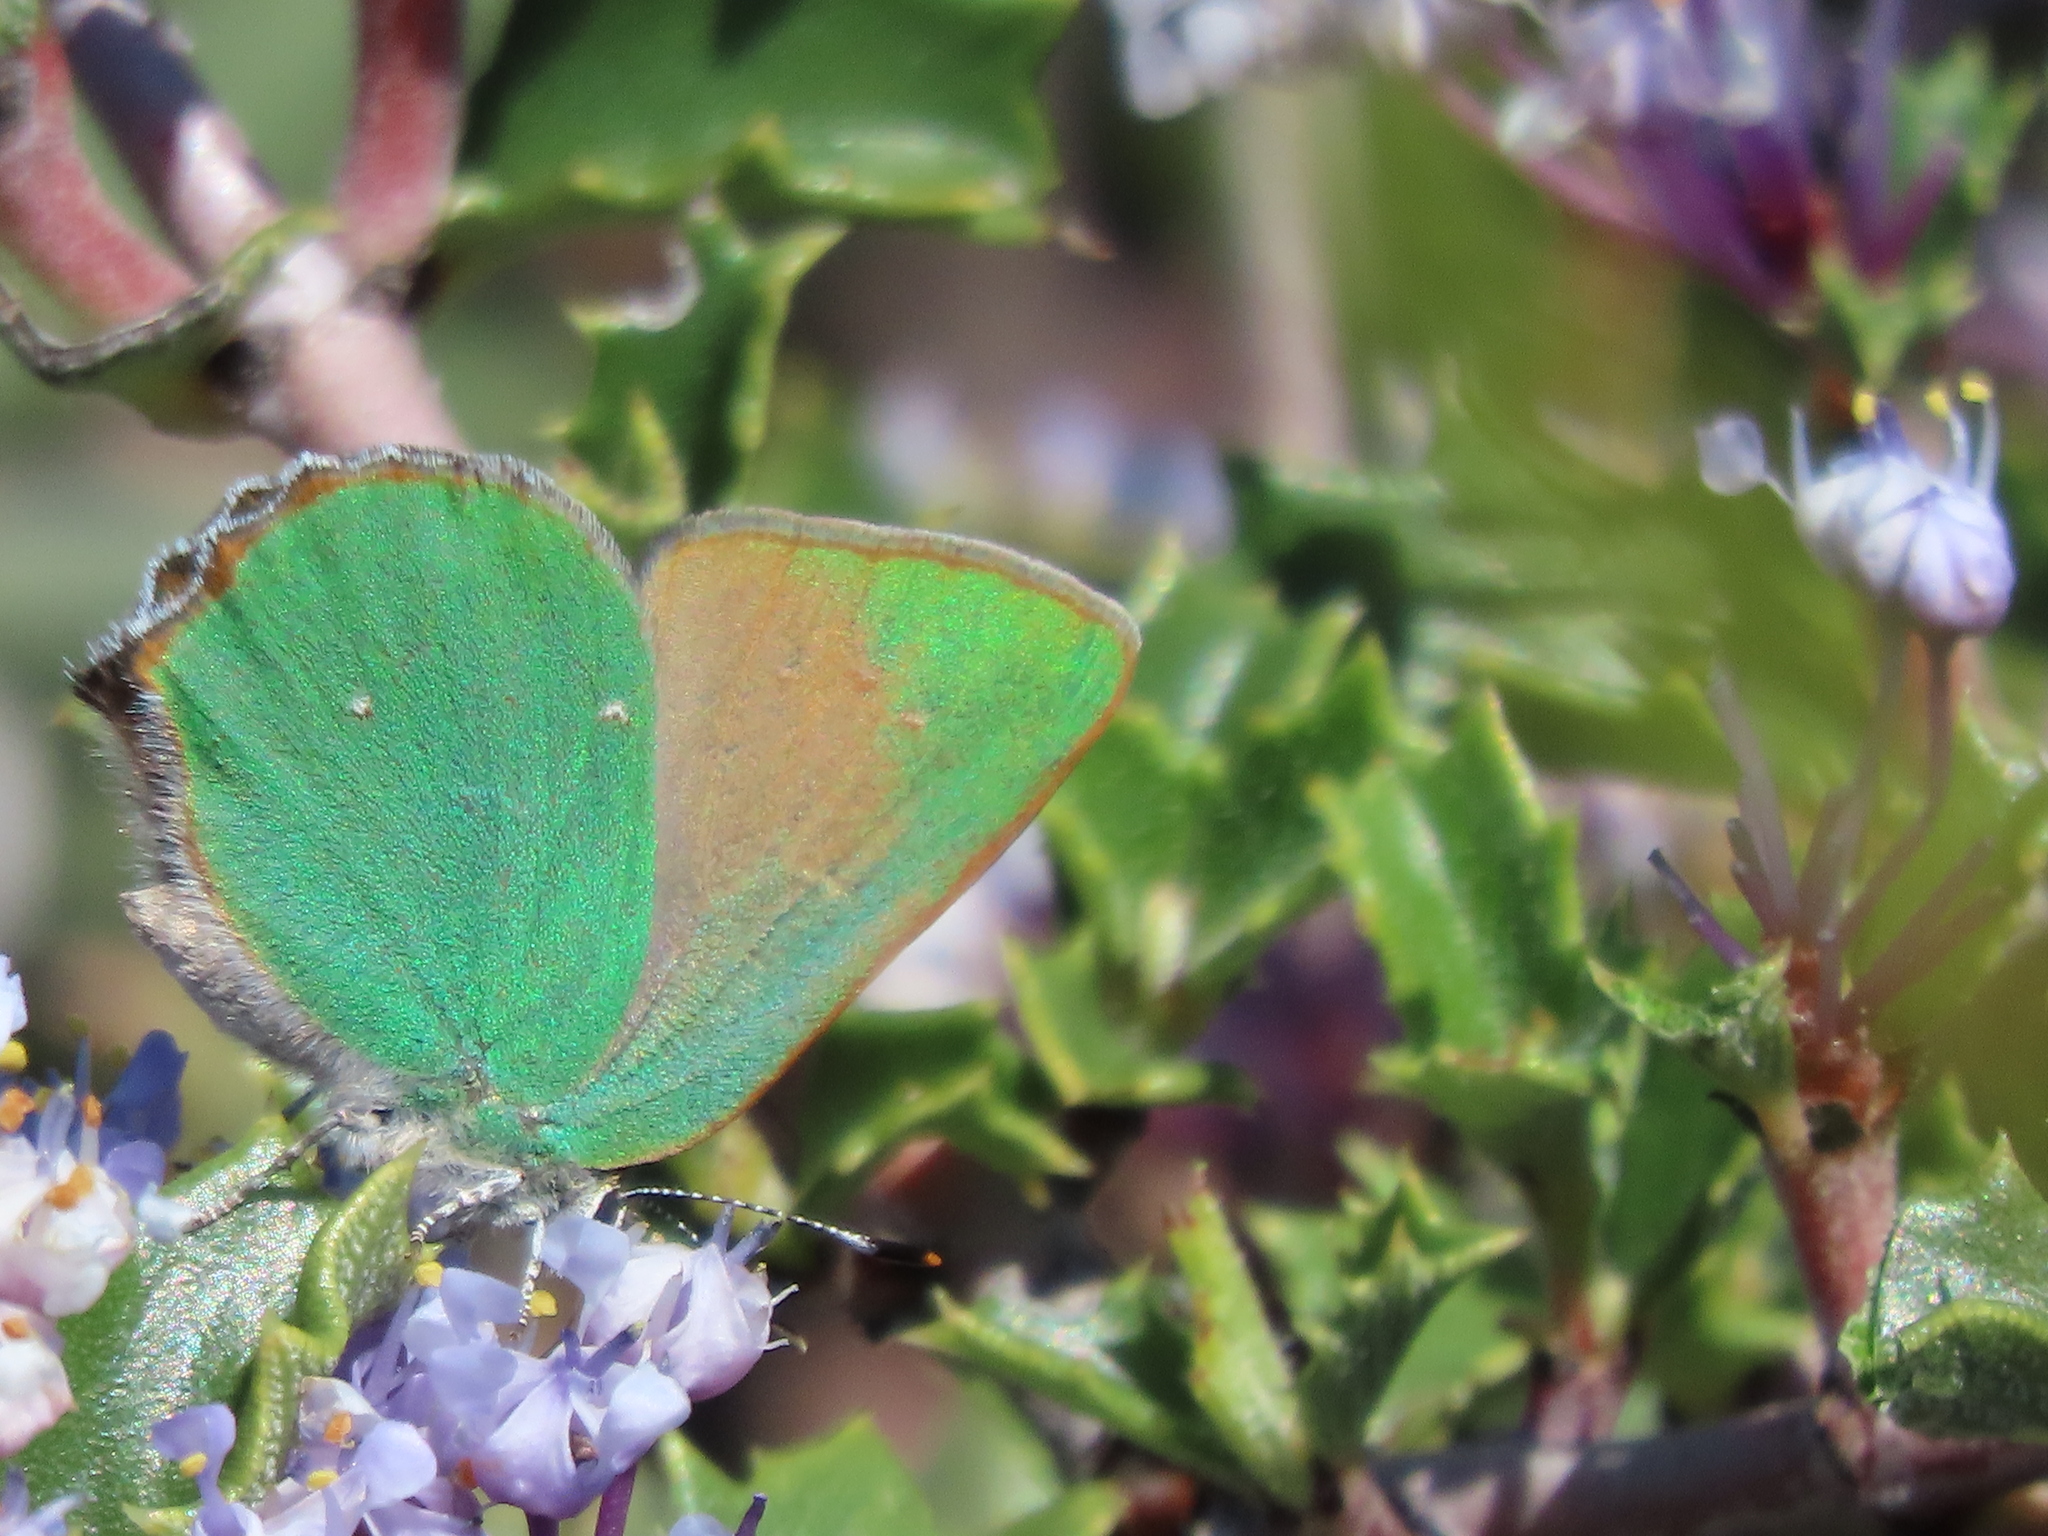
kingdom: Animalia
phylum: Arthropoda
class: Insecta
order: Lepidoptera
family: Lycaenidae
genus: Callophrys
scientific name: Callophrys dumetorum
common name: Bramble hairstreak
